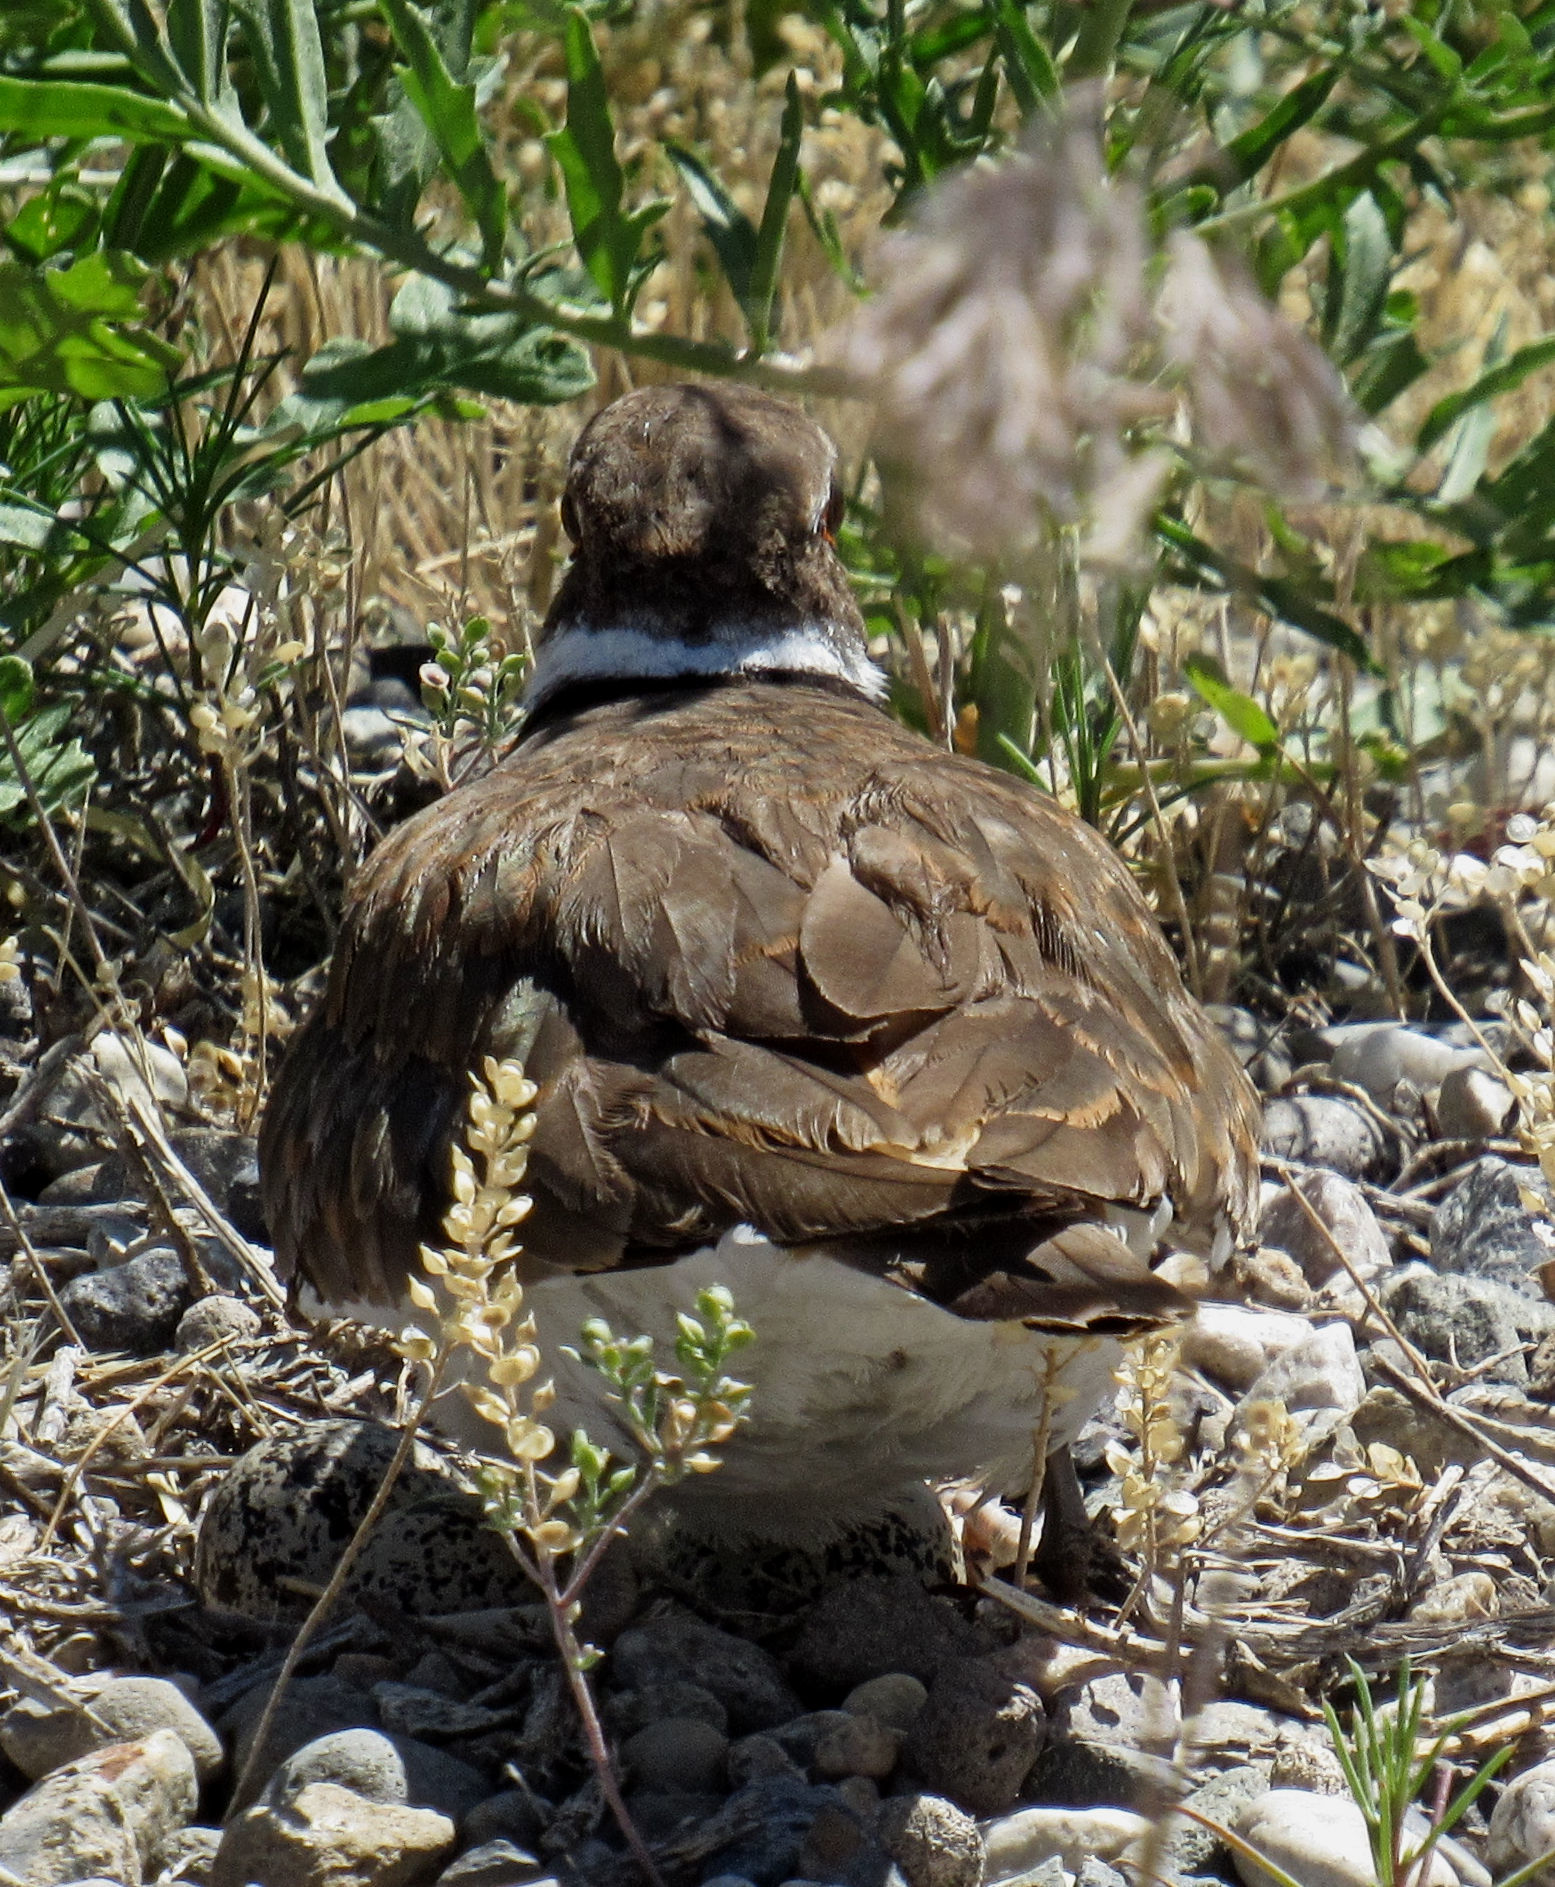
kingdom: Animalia
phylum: Chordata
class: Aves
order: Charadriiformes
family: Charadriidae
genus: Charadrius
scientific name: Charadrius vociferus
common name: Killdeer
